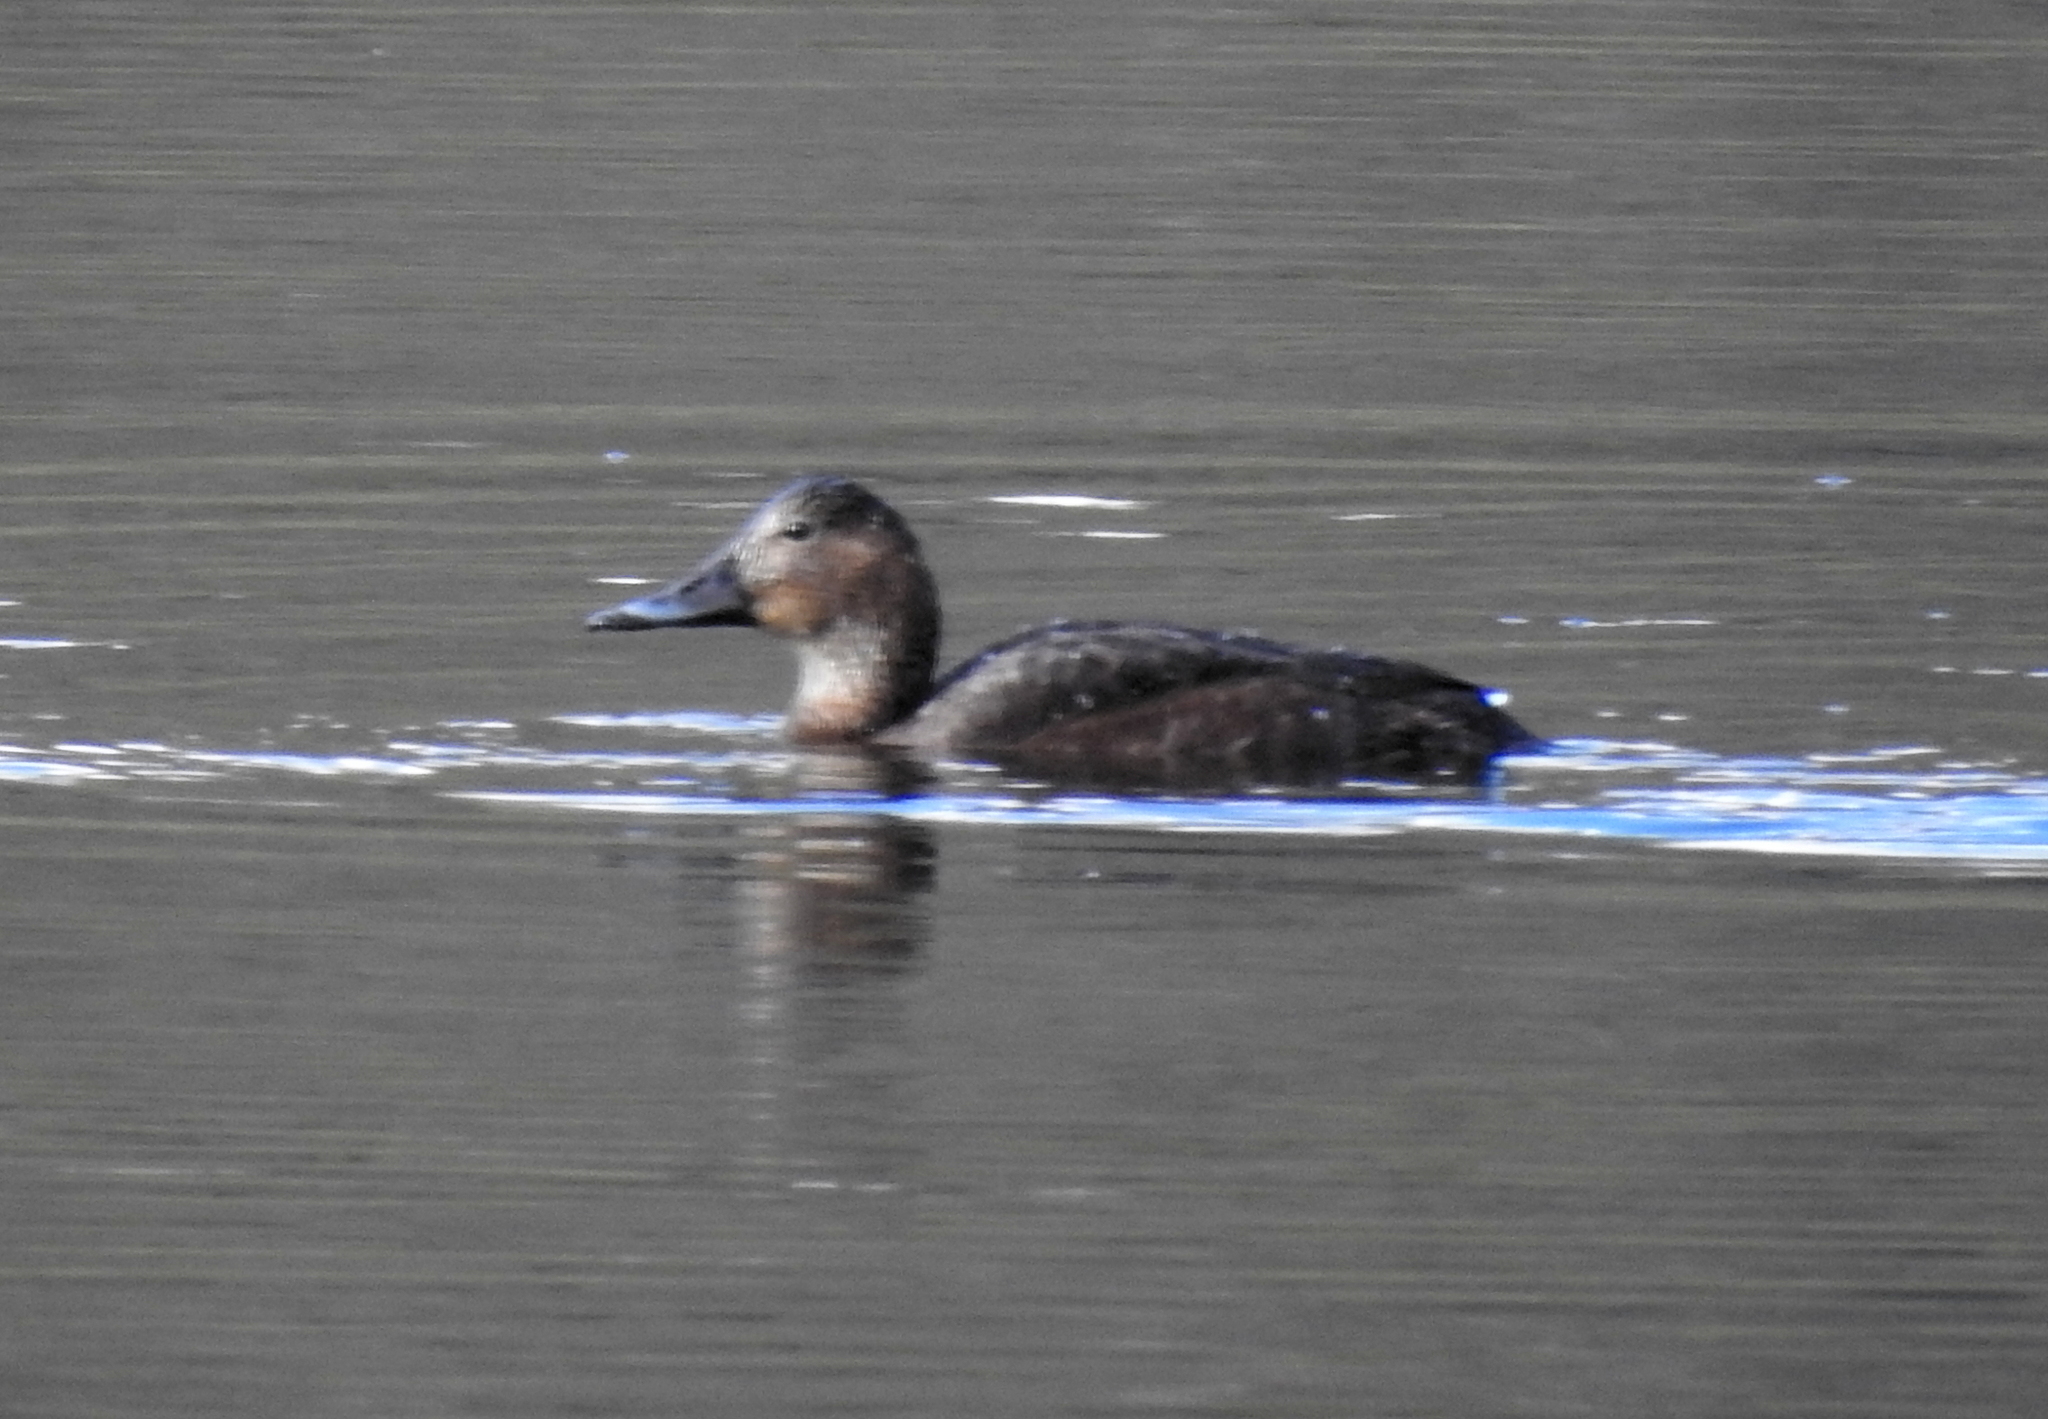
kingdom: Animalia
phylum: Chordata
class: Aves
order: Anseriformes
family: Anatidae
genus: Aythya
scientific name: Aythya ferina
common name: Common pochard
